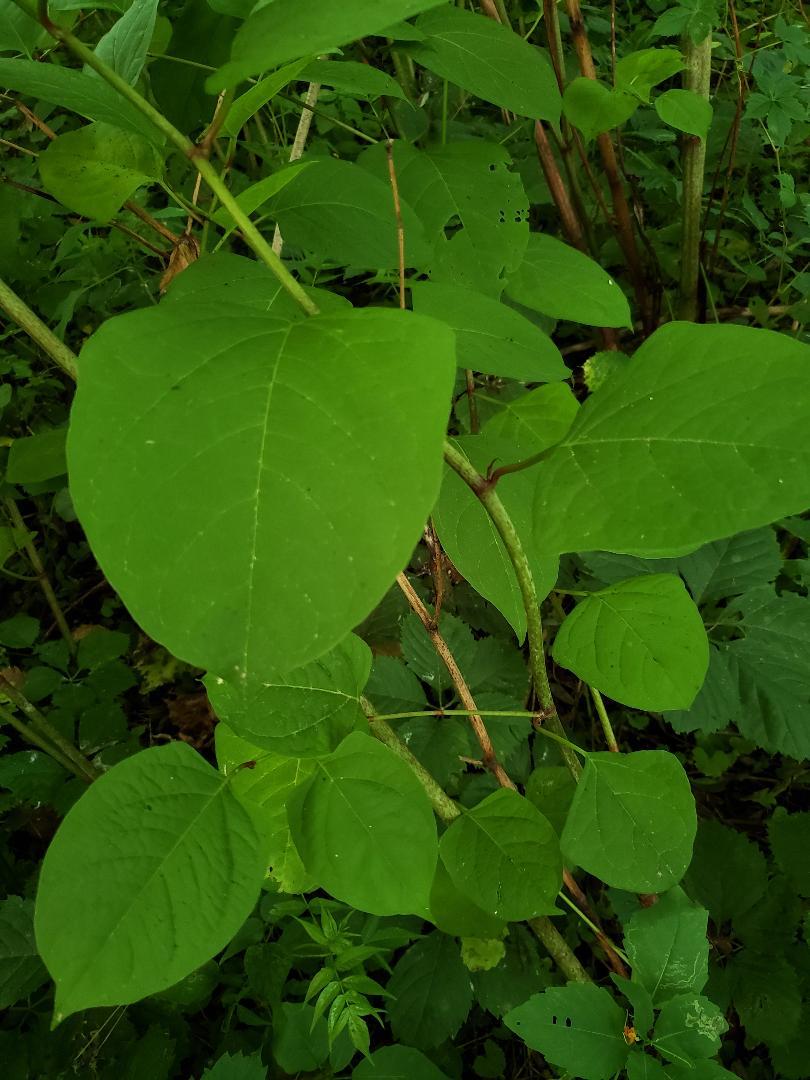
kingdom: Plantae
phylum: Tracheophyta
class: Magnoliopsida
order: Caryophyllales
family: Polygonaceae
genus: Reynoutria
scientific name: Reynoutria
